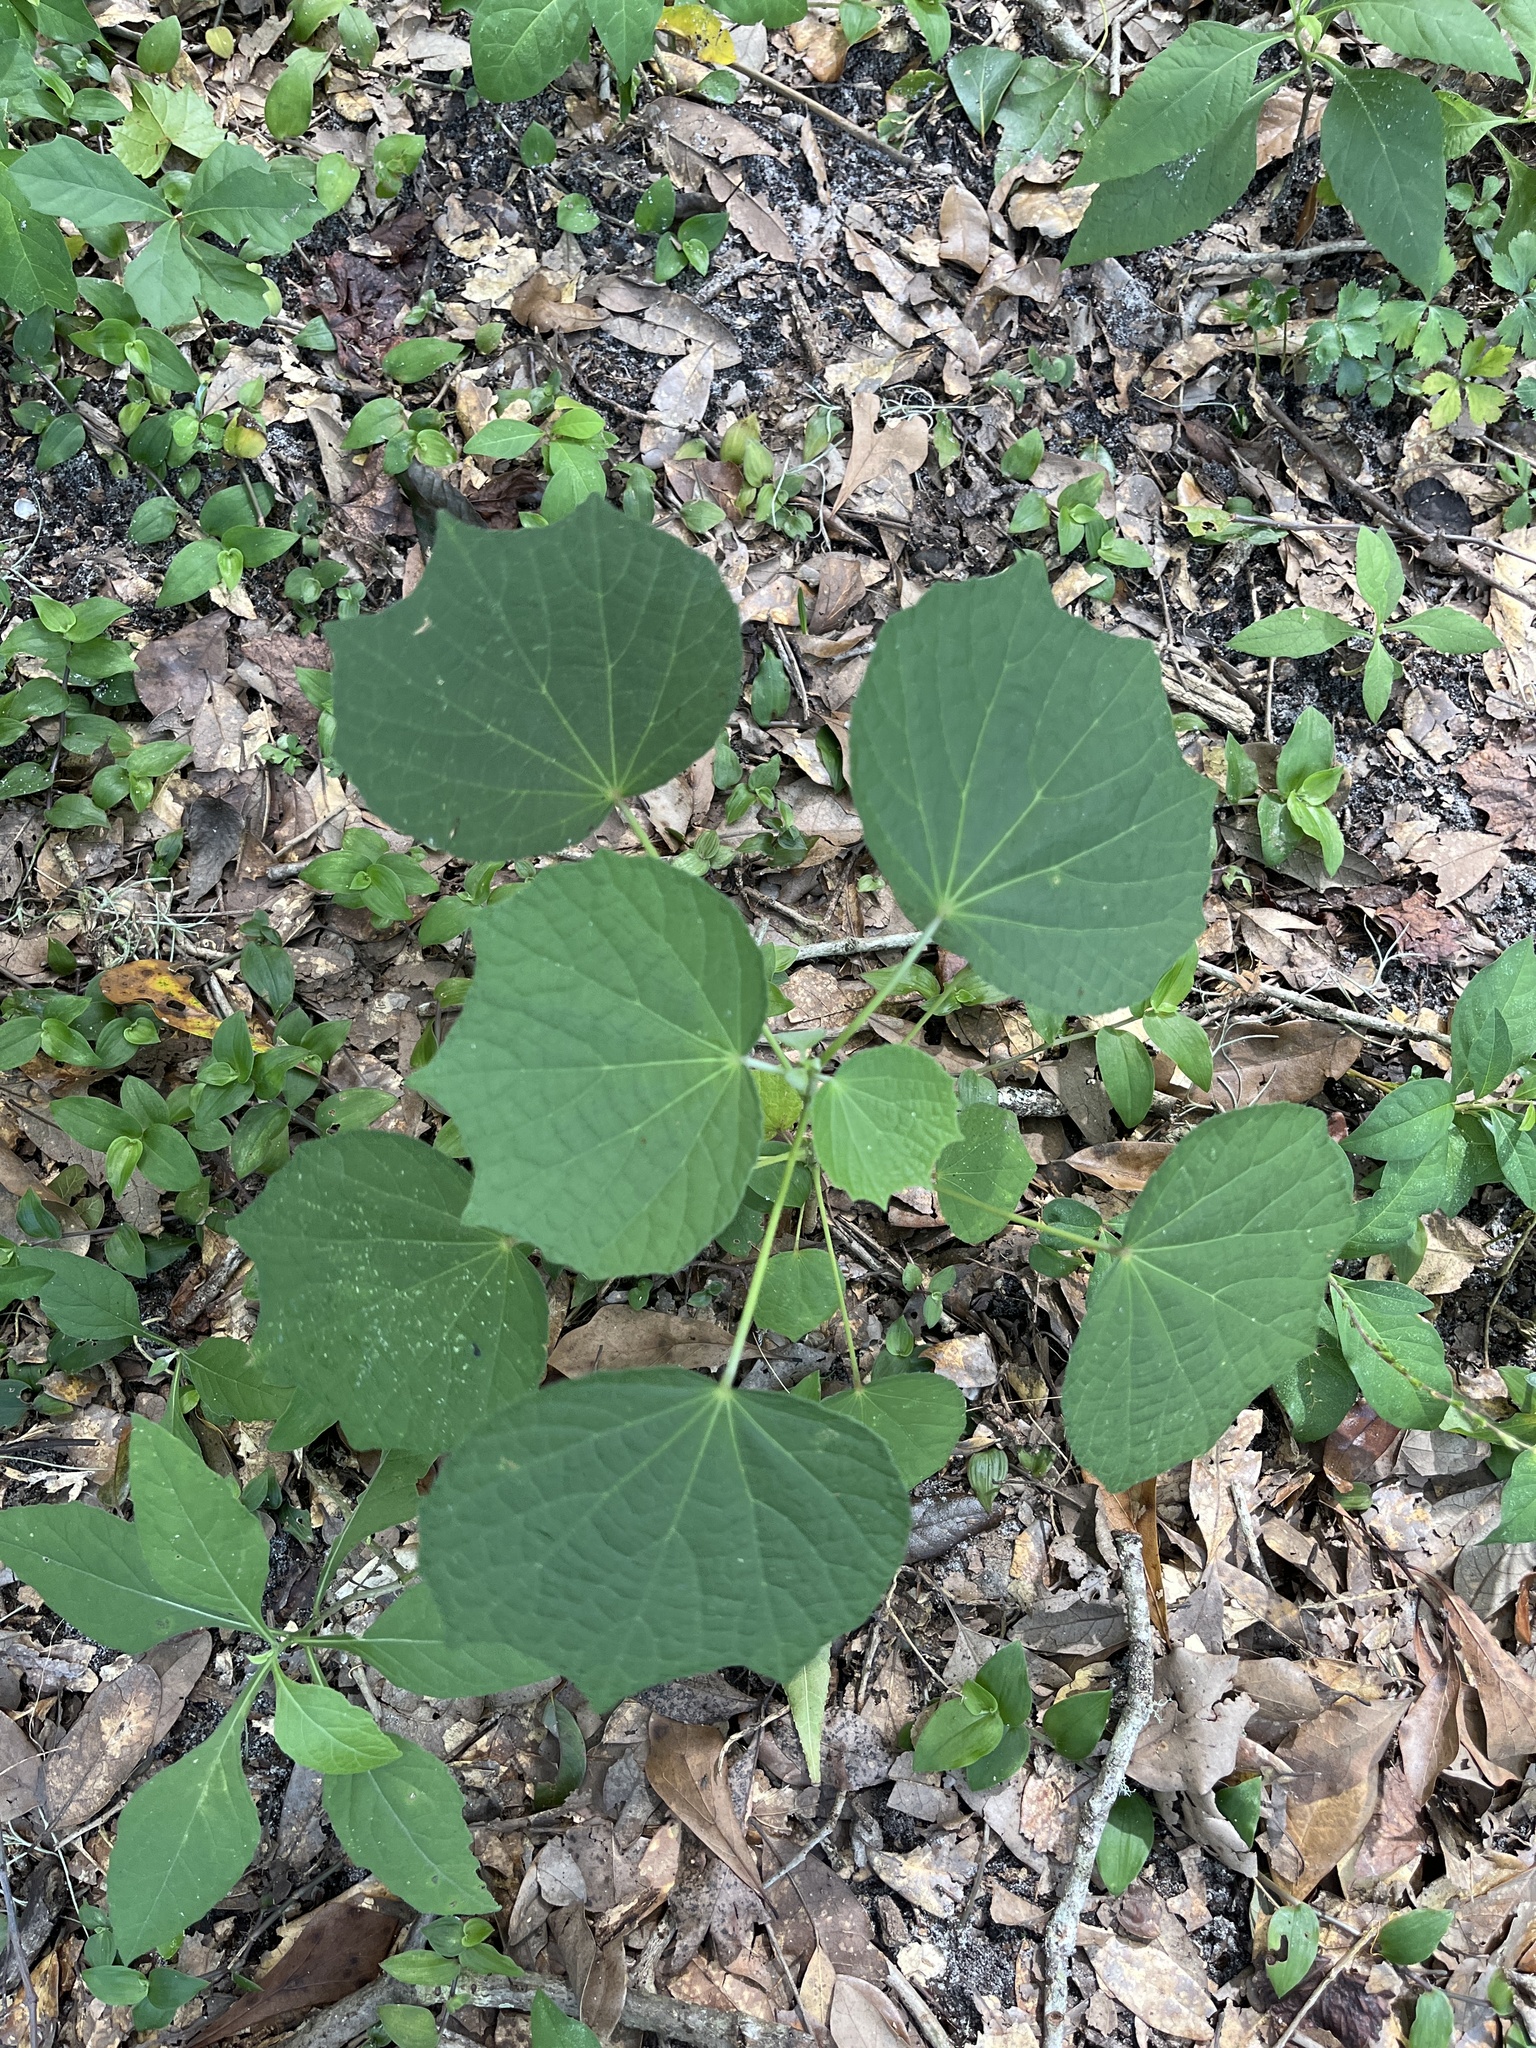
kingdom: Plantae
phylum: Tracheophyta
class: Magnoliopsida
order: Malvales
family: Malvaceae
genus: Urena
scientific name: Urena lobata
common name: Caesarweed
